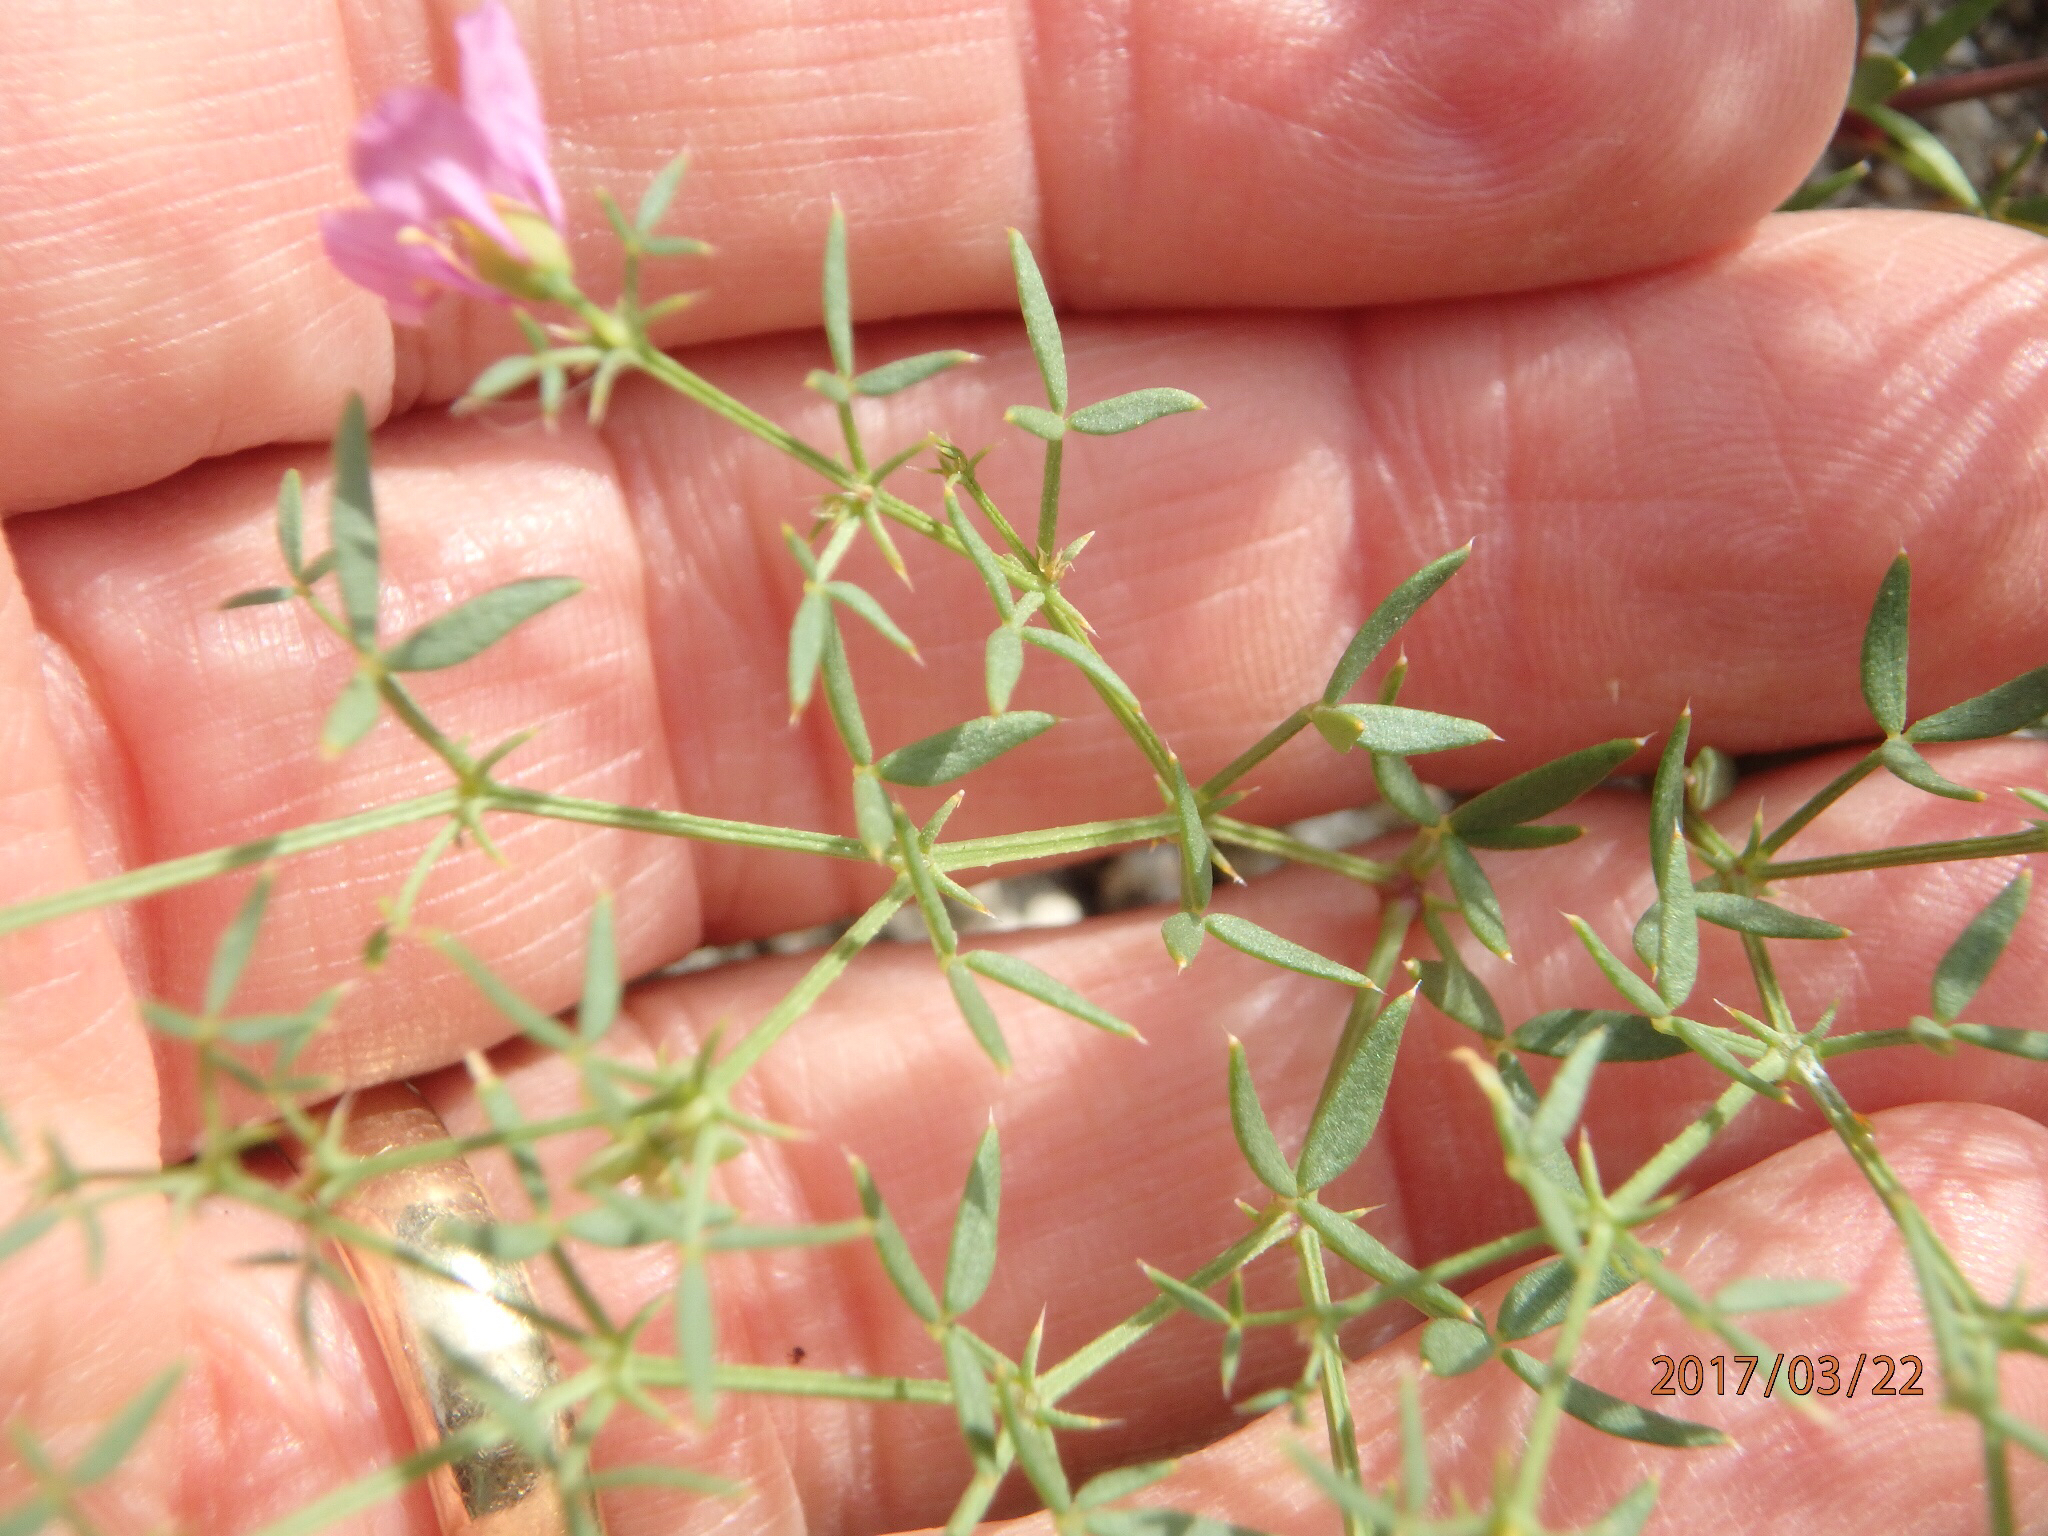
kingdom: Plantae
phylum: Tracheophyta
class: Magnoliopsida
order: Zygophyllales
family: Zygophyllaceae
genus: Fagonia
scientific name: Fagonia laevis
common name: California fagonbush
